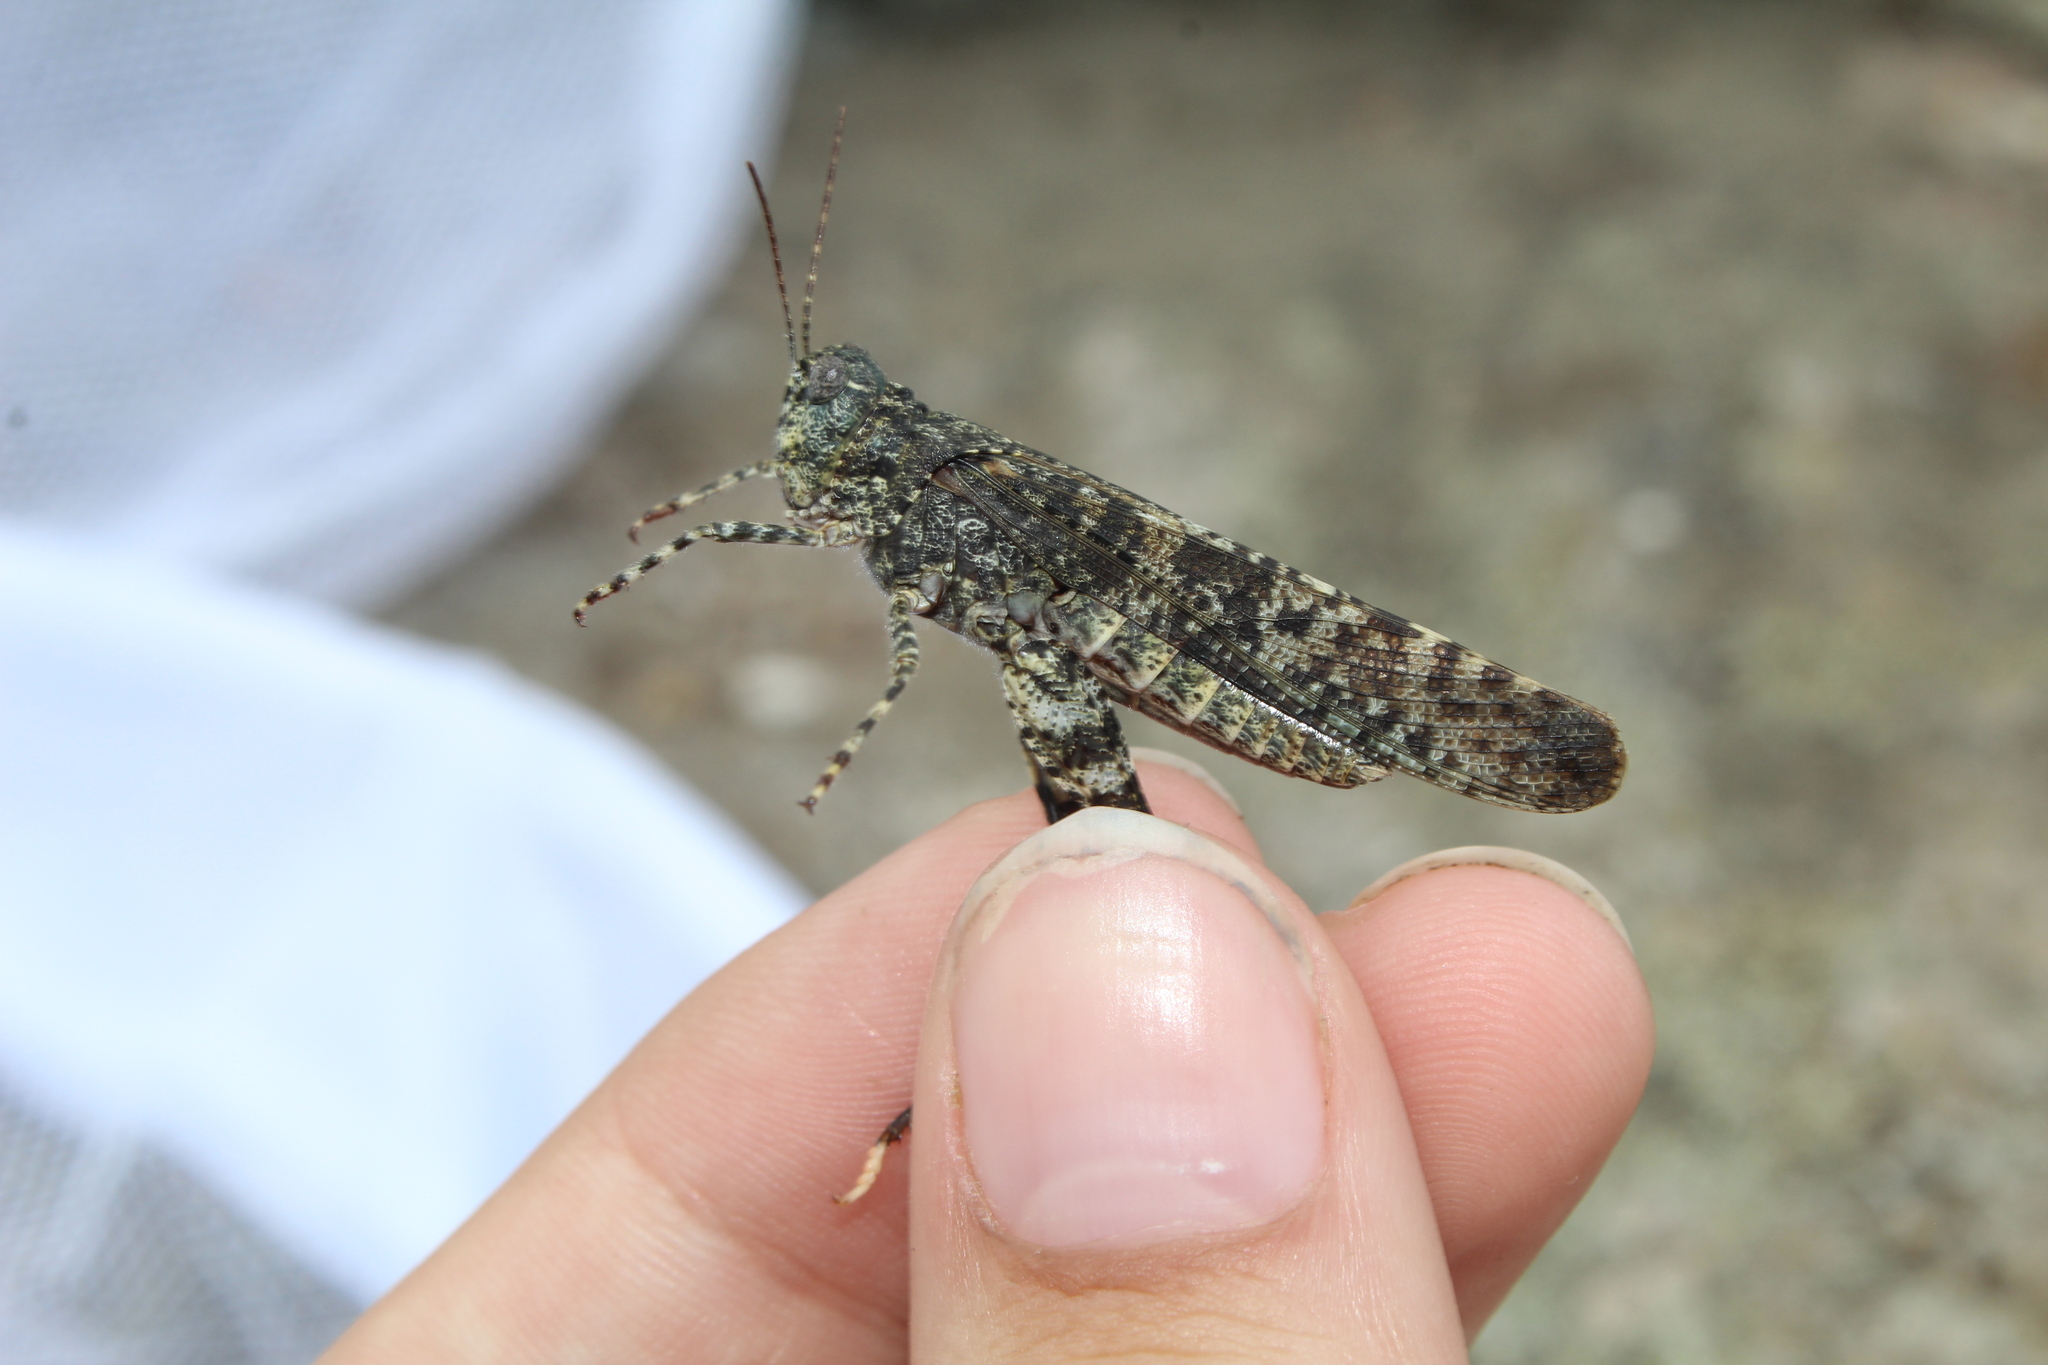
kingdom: Animalia
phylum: Arthropoda
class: Insecta
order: Orthoptera
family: Acrididae
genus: Trimerotropis
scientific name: Trimerotropis verruculata
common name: Crackling forest grasshopper
